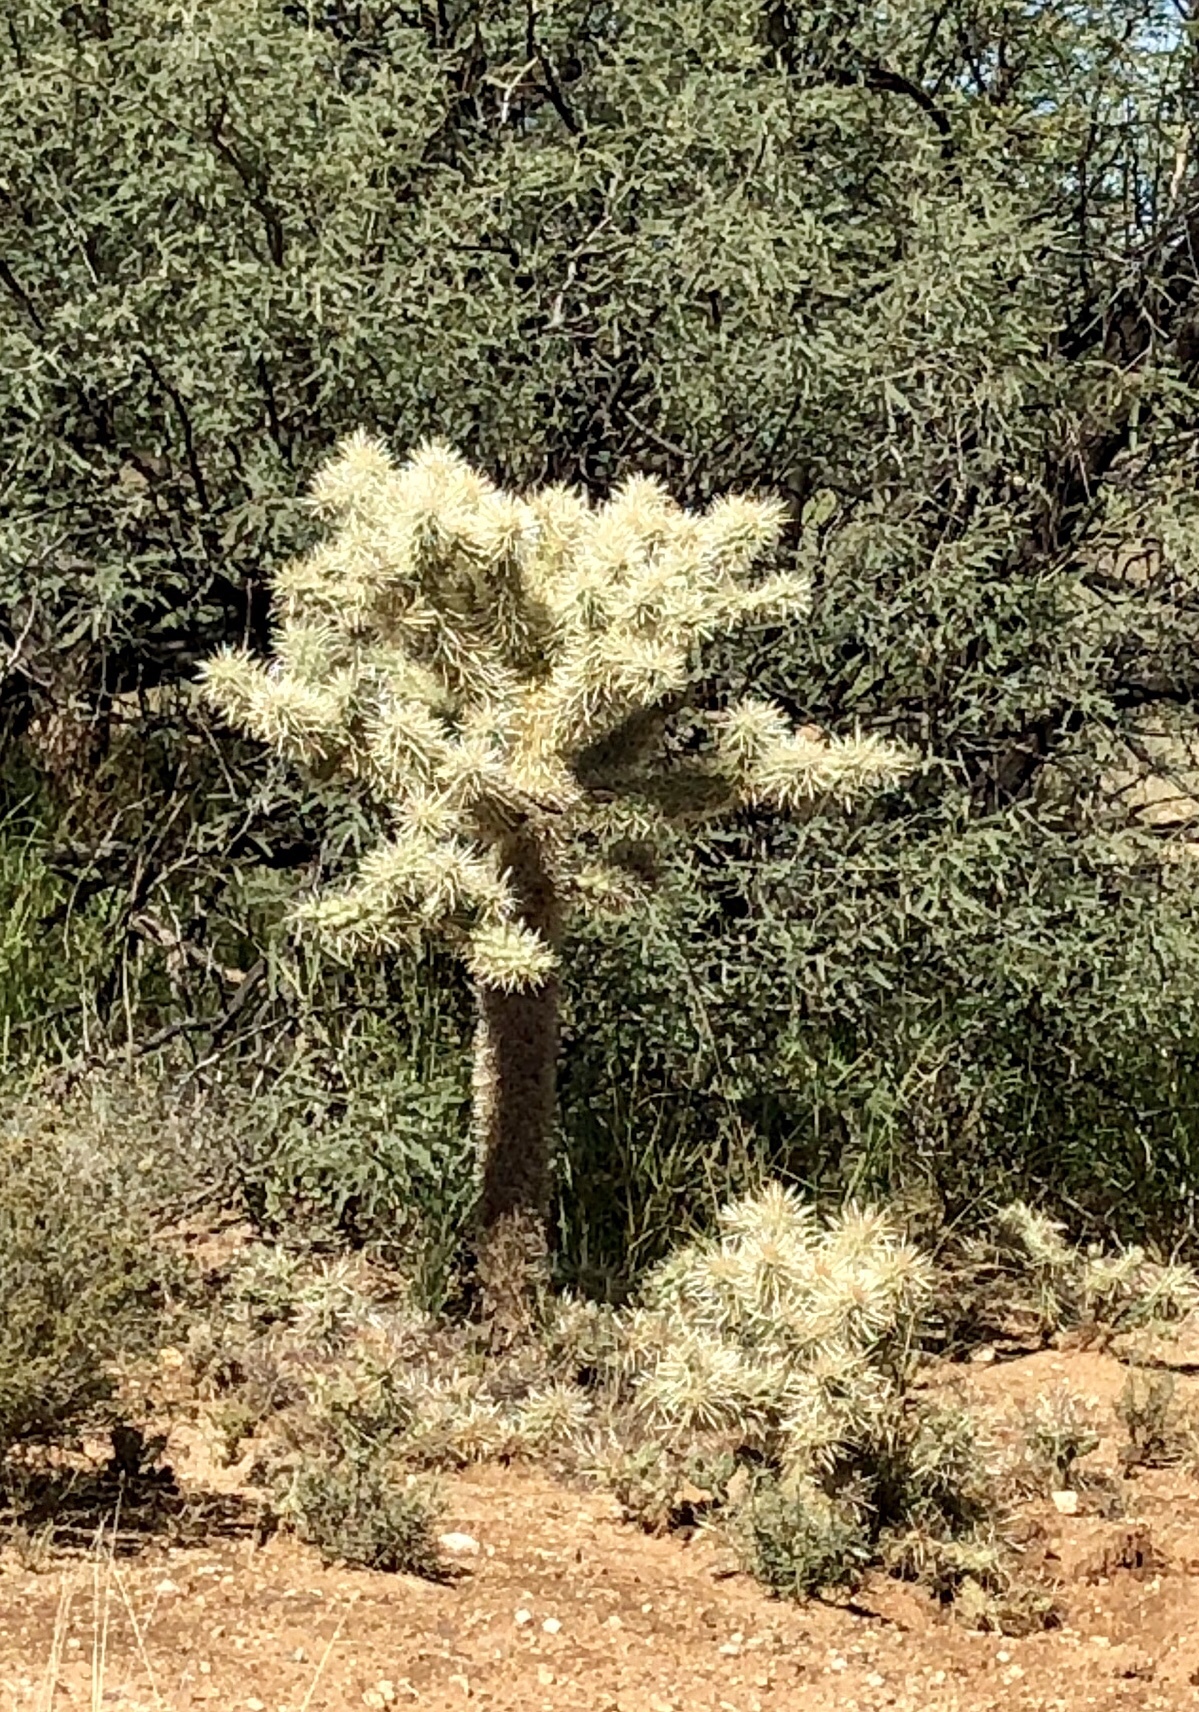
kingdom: Plantae
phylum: Tracheophyta
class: Magnoliopsida
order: Caryophyllales
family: Cactaceae
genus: Cylindropuntia
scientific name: Cylindropuntia fulgida
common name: Jumping cholla
